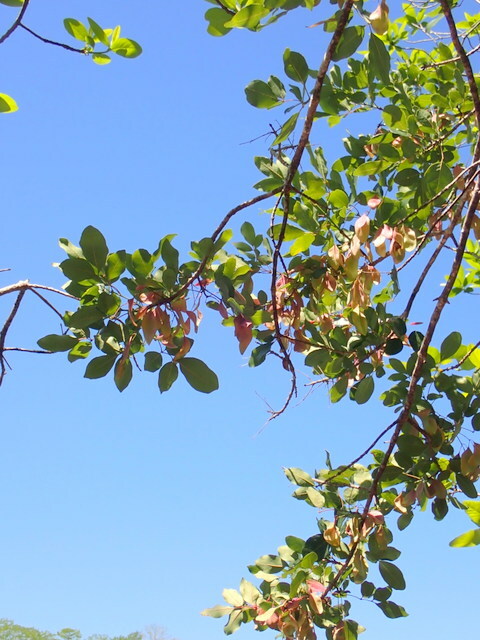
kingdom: Plantae
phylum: Tracheophyta
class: Magnoliopsida
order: Lamiales
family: Oleaceae
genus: Fraxinus
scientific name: Fraxinus caroliniana
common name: Carolina ash
